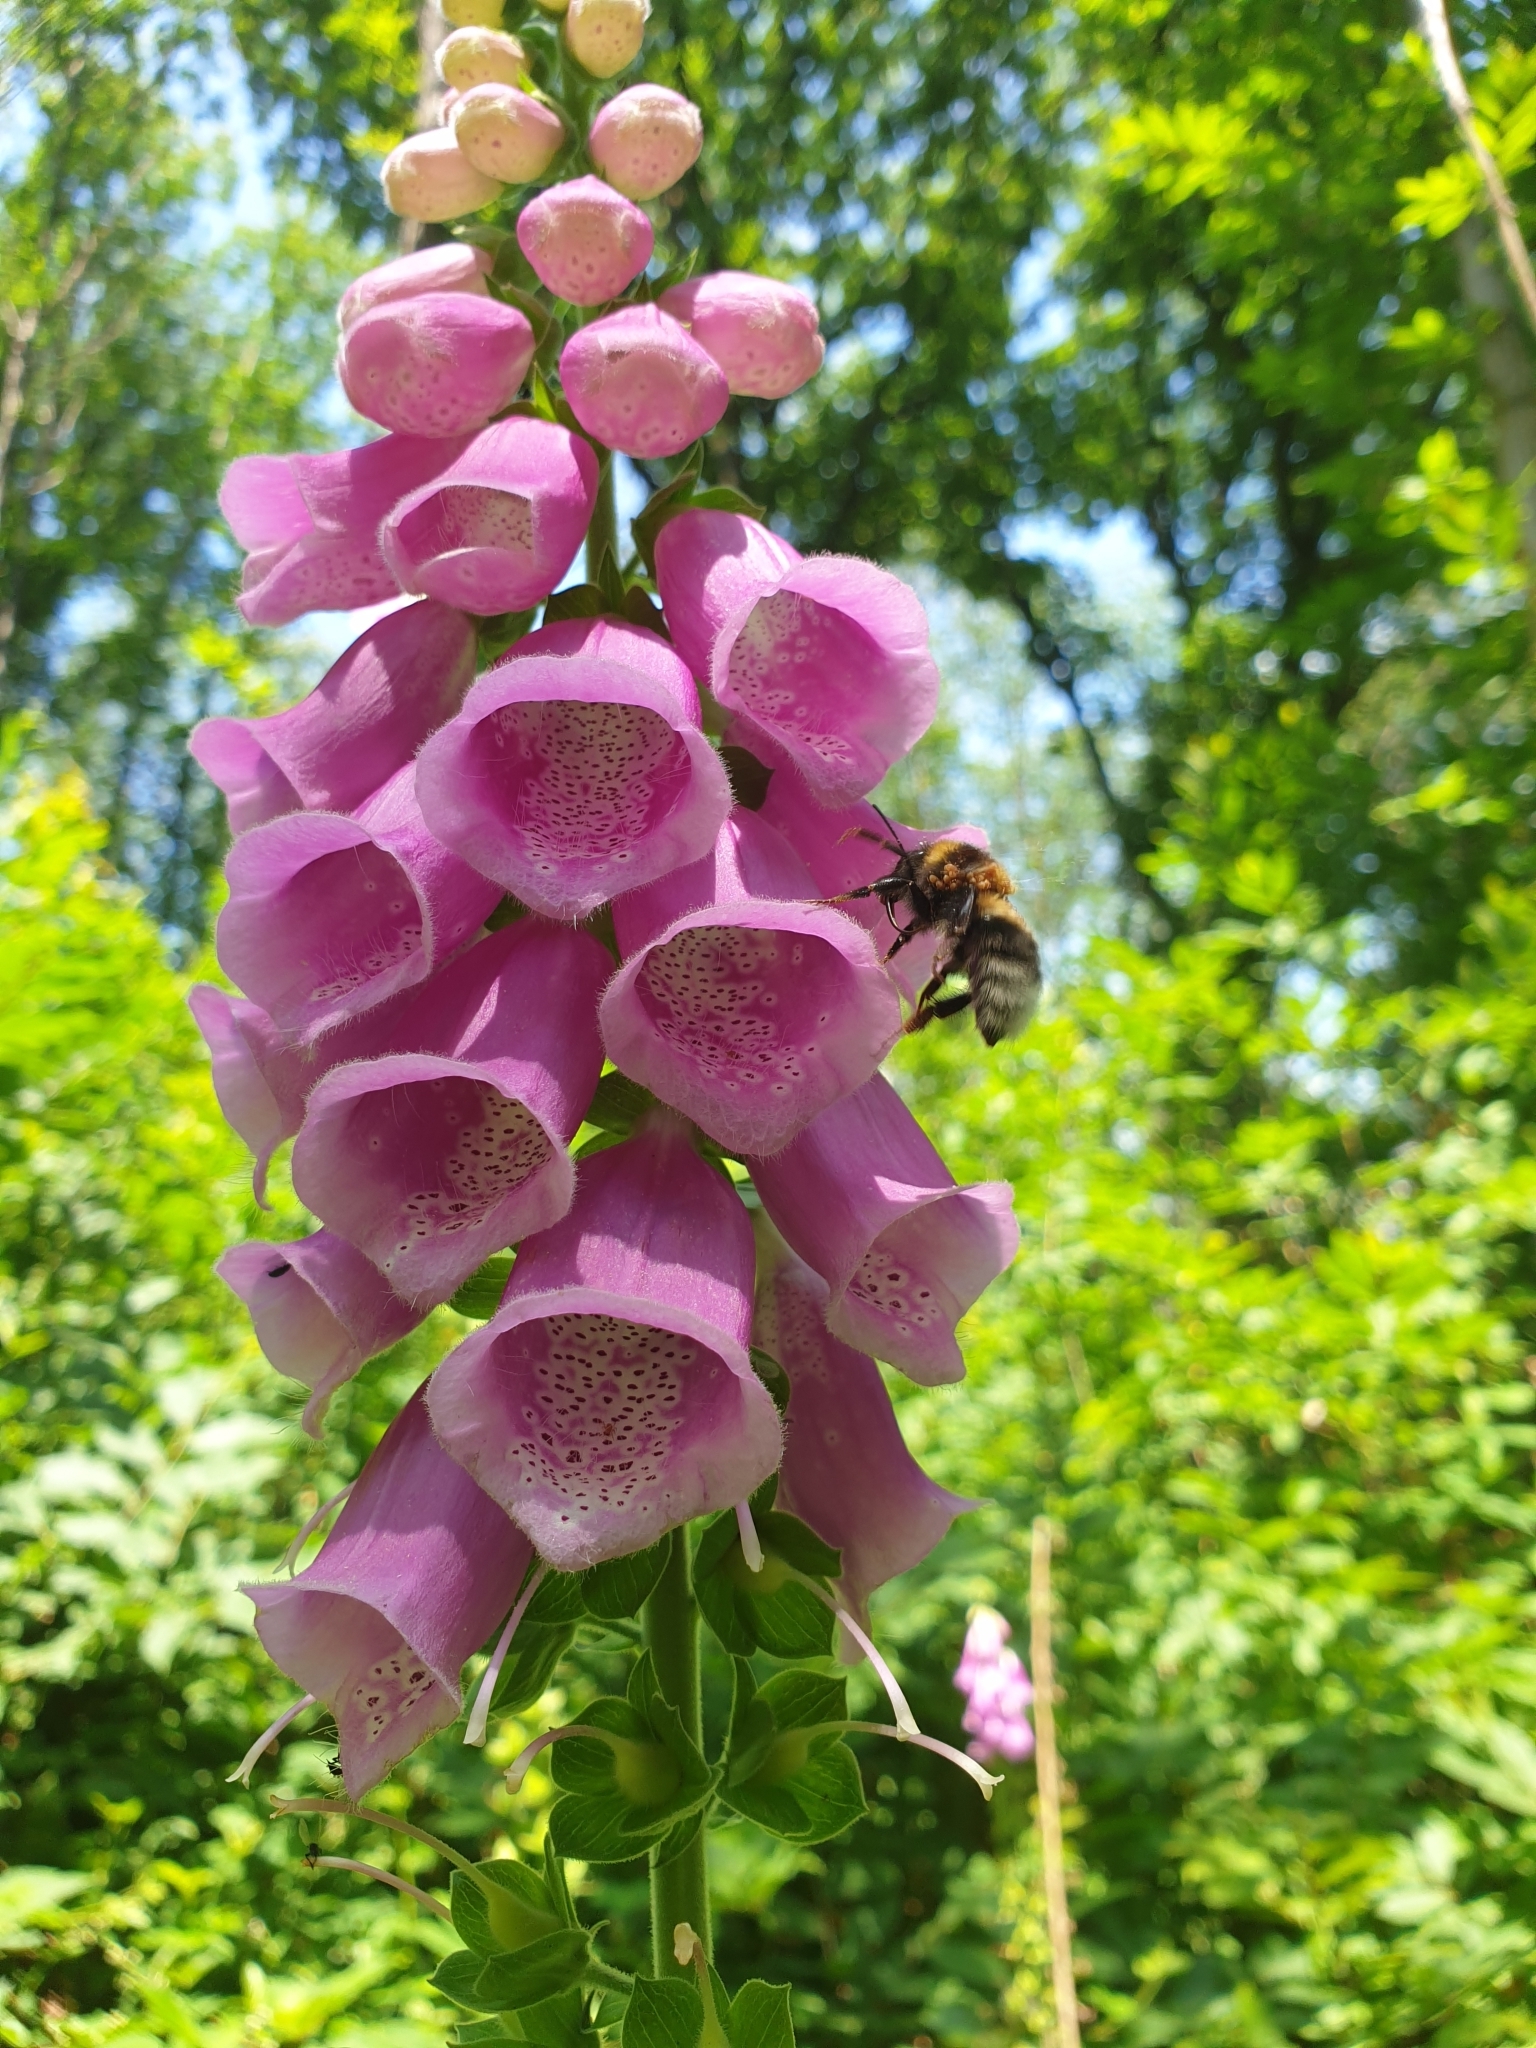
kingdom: Plantae
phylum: Tracheophyta
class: Magnoliopsida
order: Lamiales
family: Plantaginaceae
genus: Digitalis
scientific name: Digitalis purpurea
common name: Foxglove
